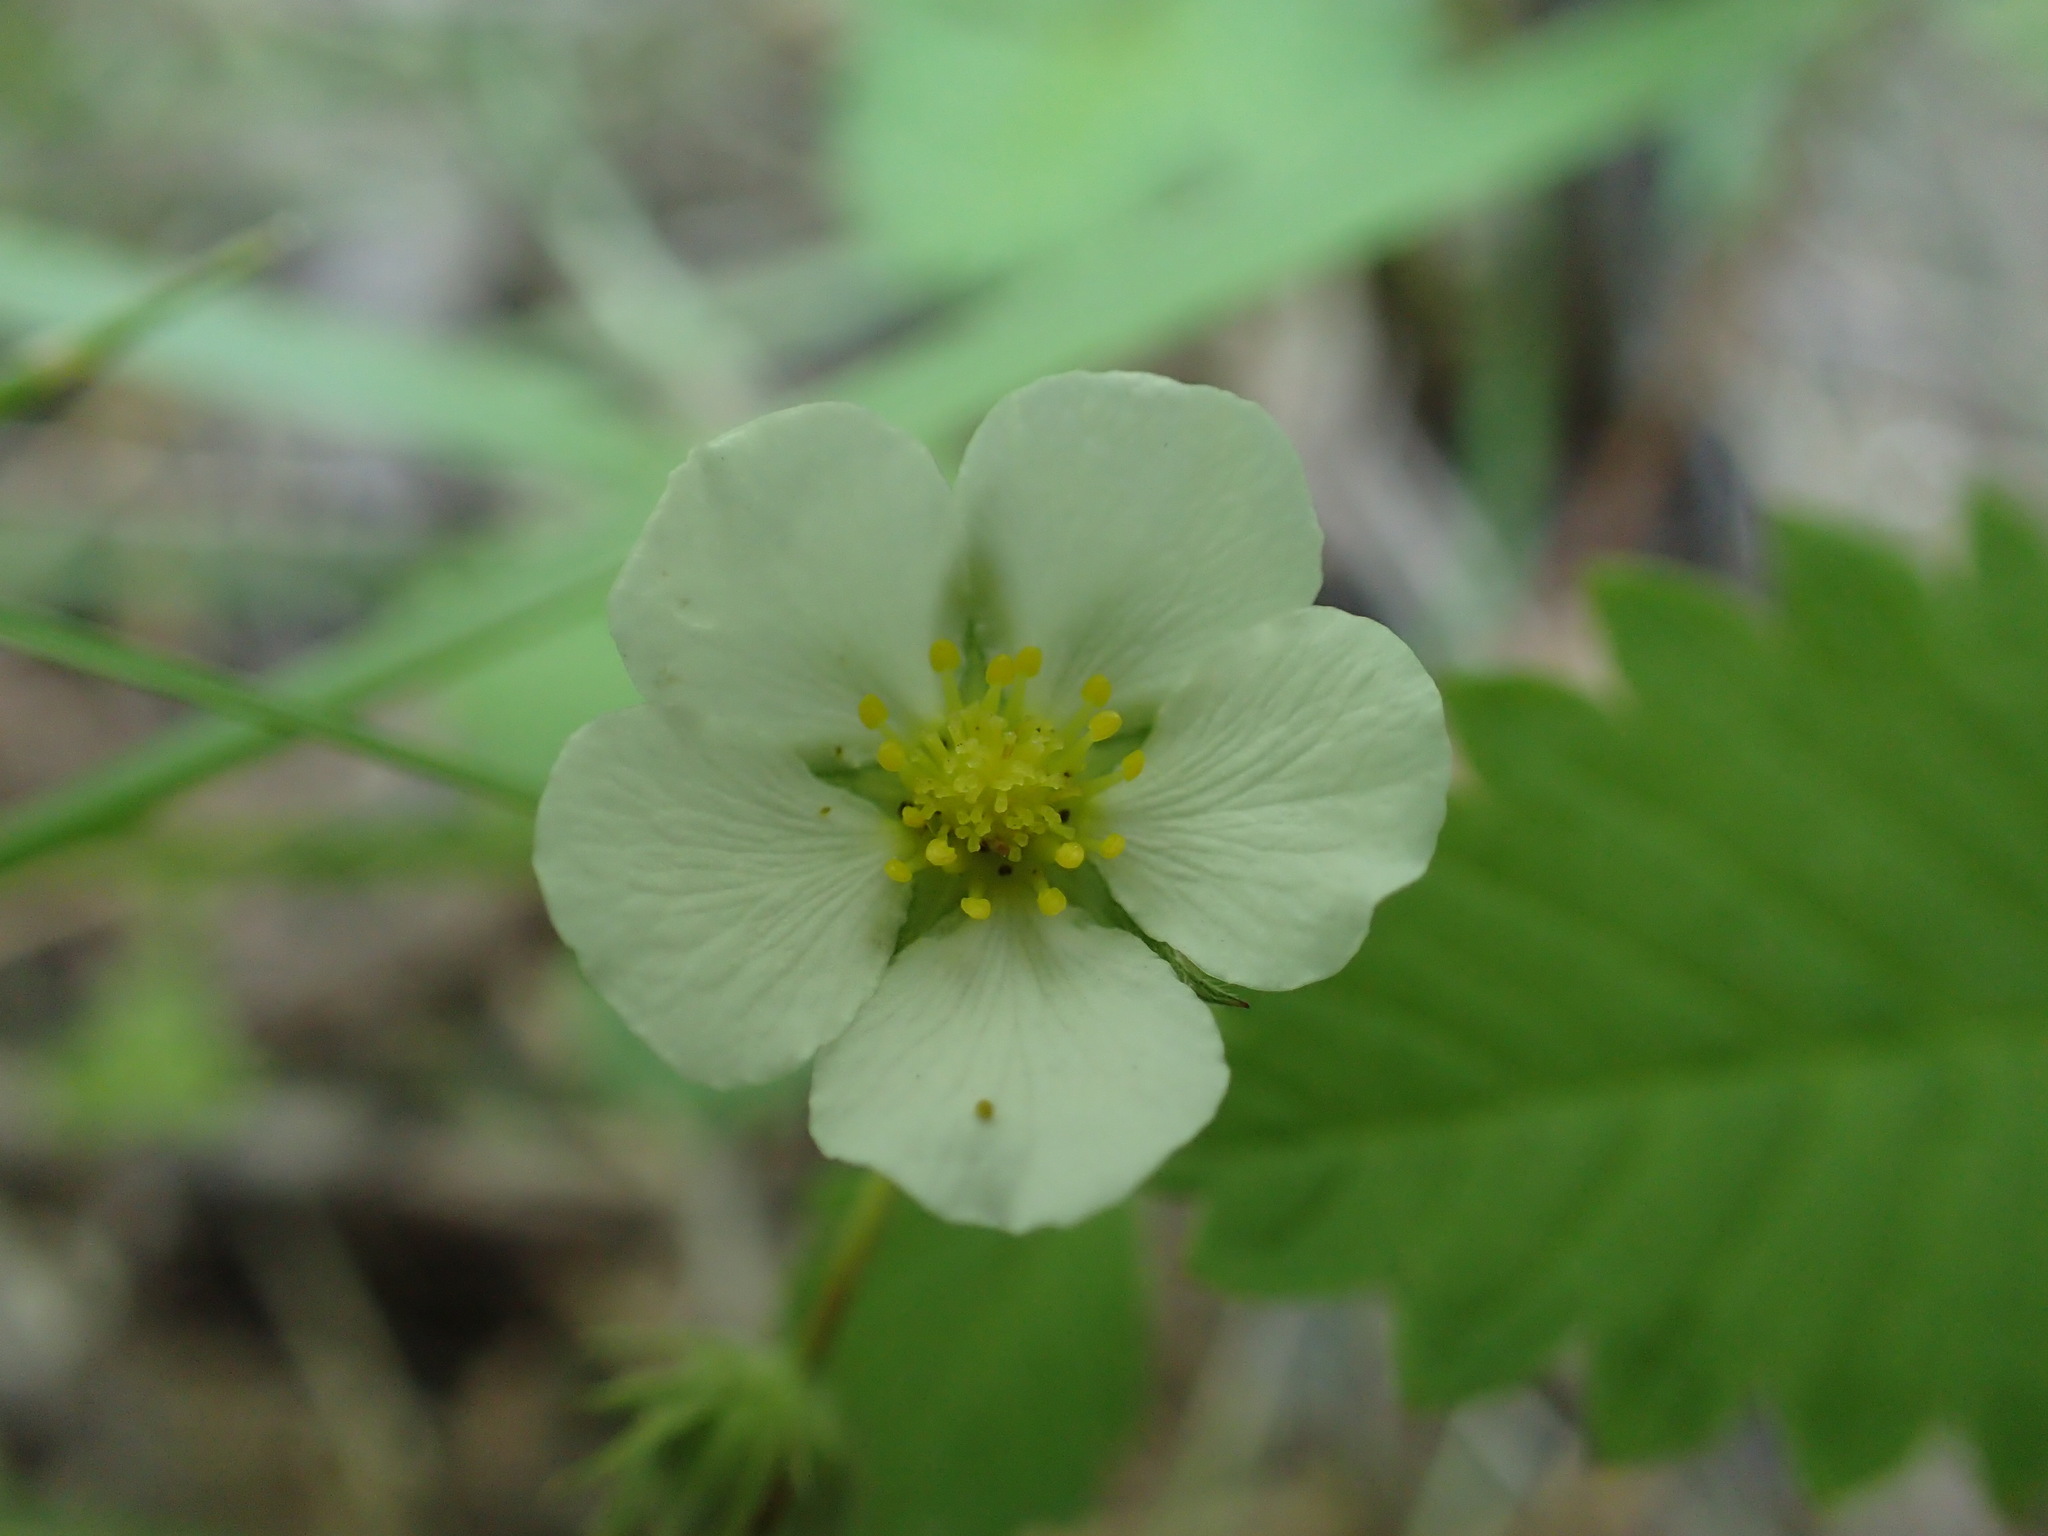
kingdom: Plantae
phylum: Tracheophyta
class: Magnoliopsida
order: Rosales
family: Rosaceae
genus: Fragaria
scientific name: Fragaria vesca
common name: Wild strawberry
